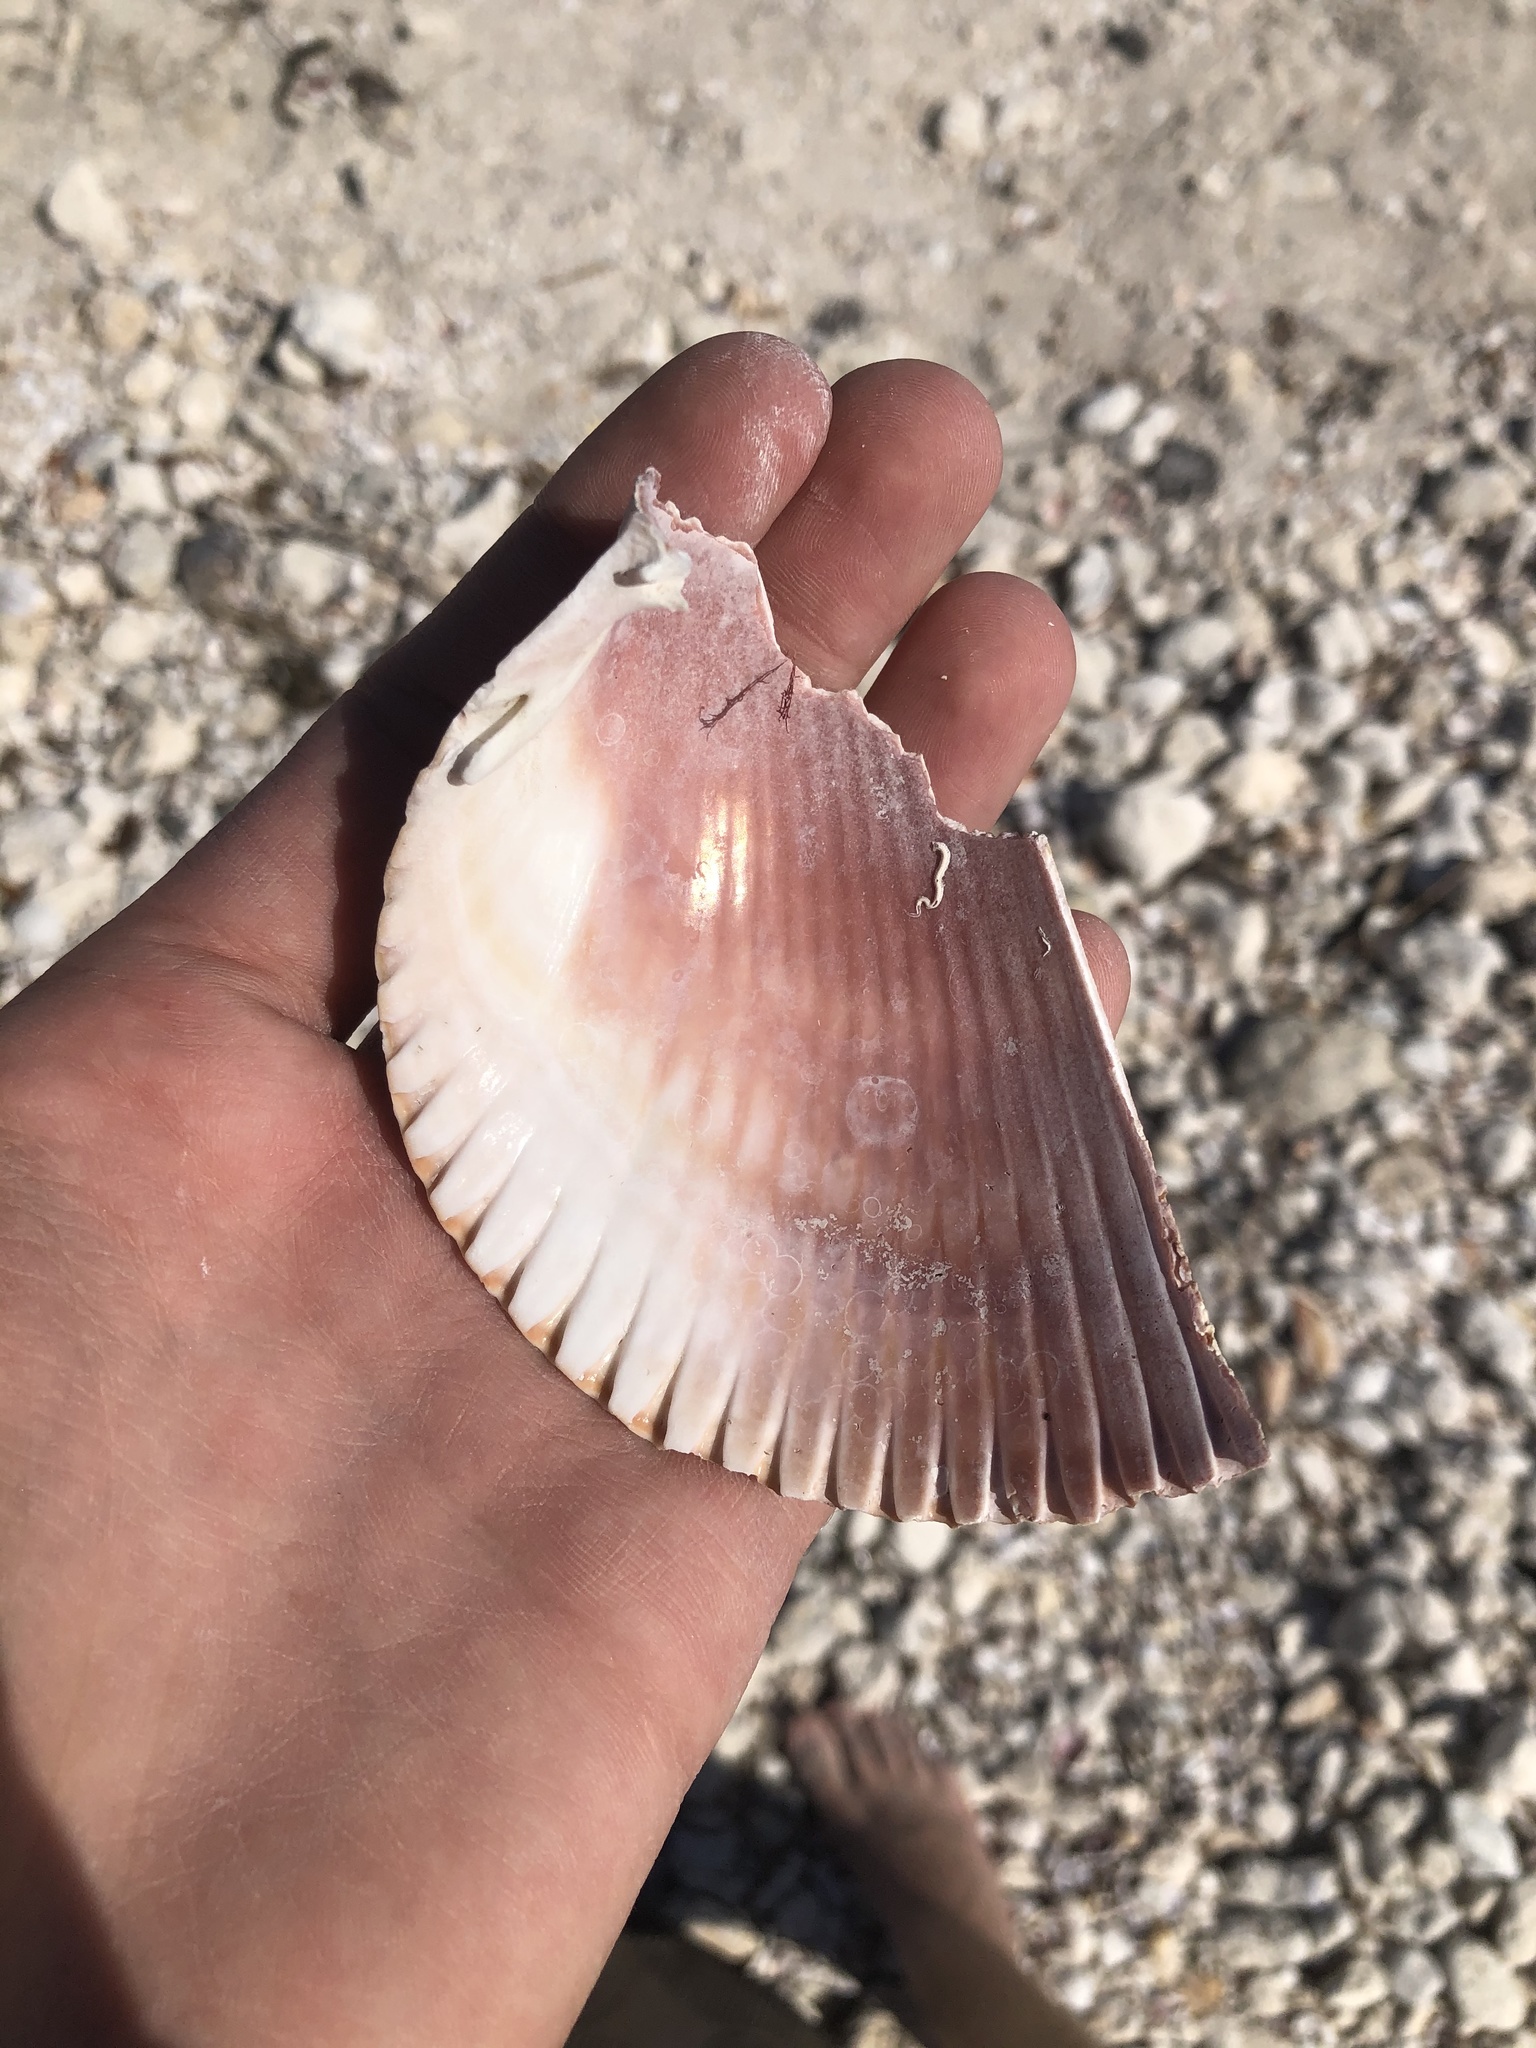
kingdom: Animalia
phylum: Mollusca
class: Bivalvia
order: Cardiida
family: Cardiidae
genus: Dinocardium
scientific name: Dinocardium robustum
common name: Atlantic giant cockle
